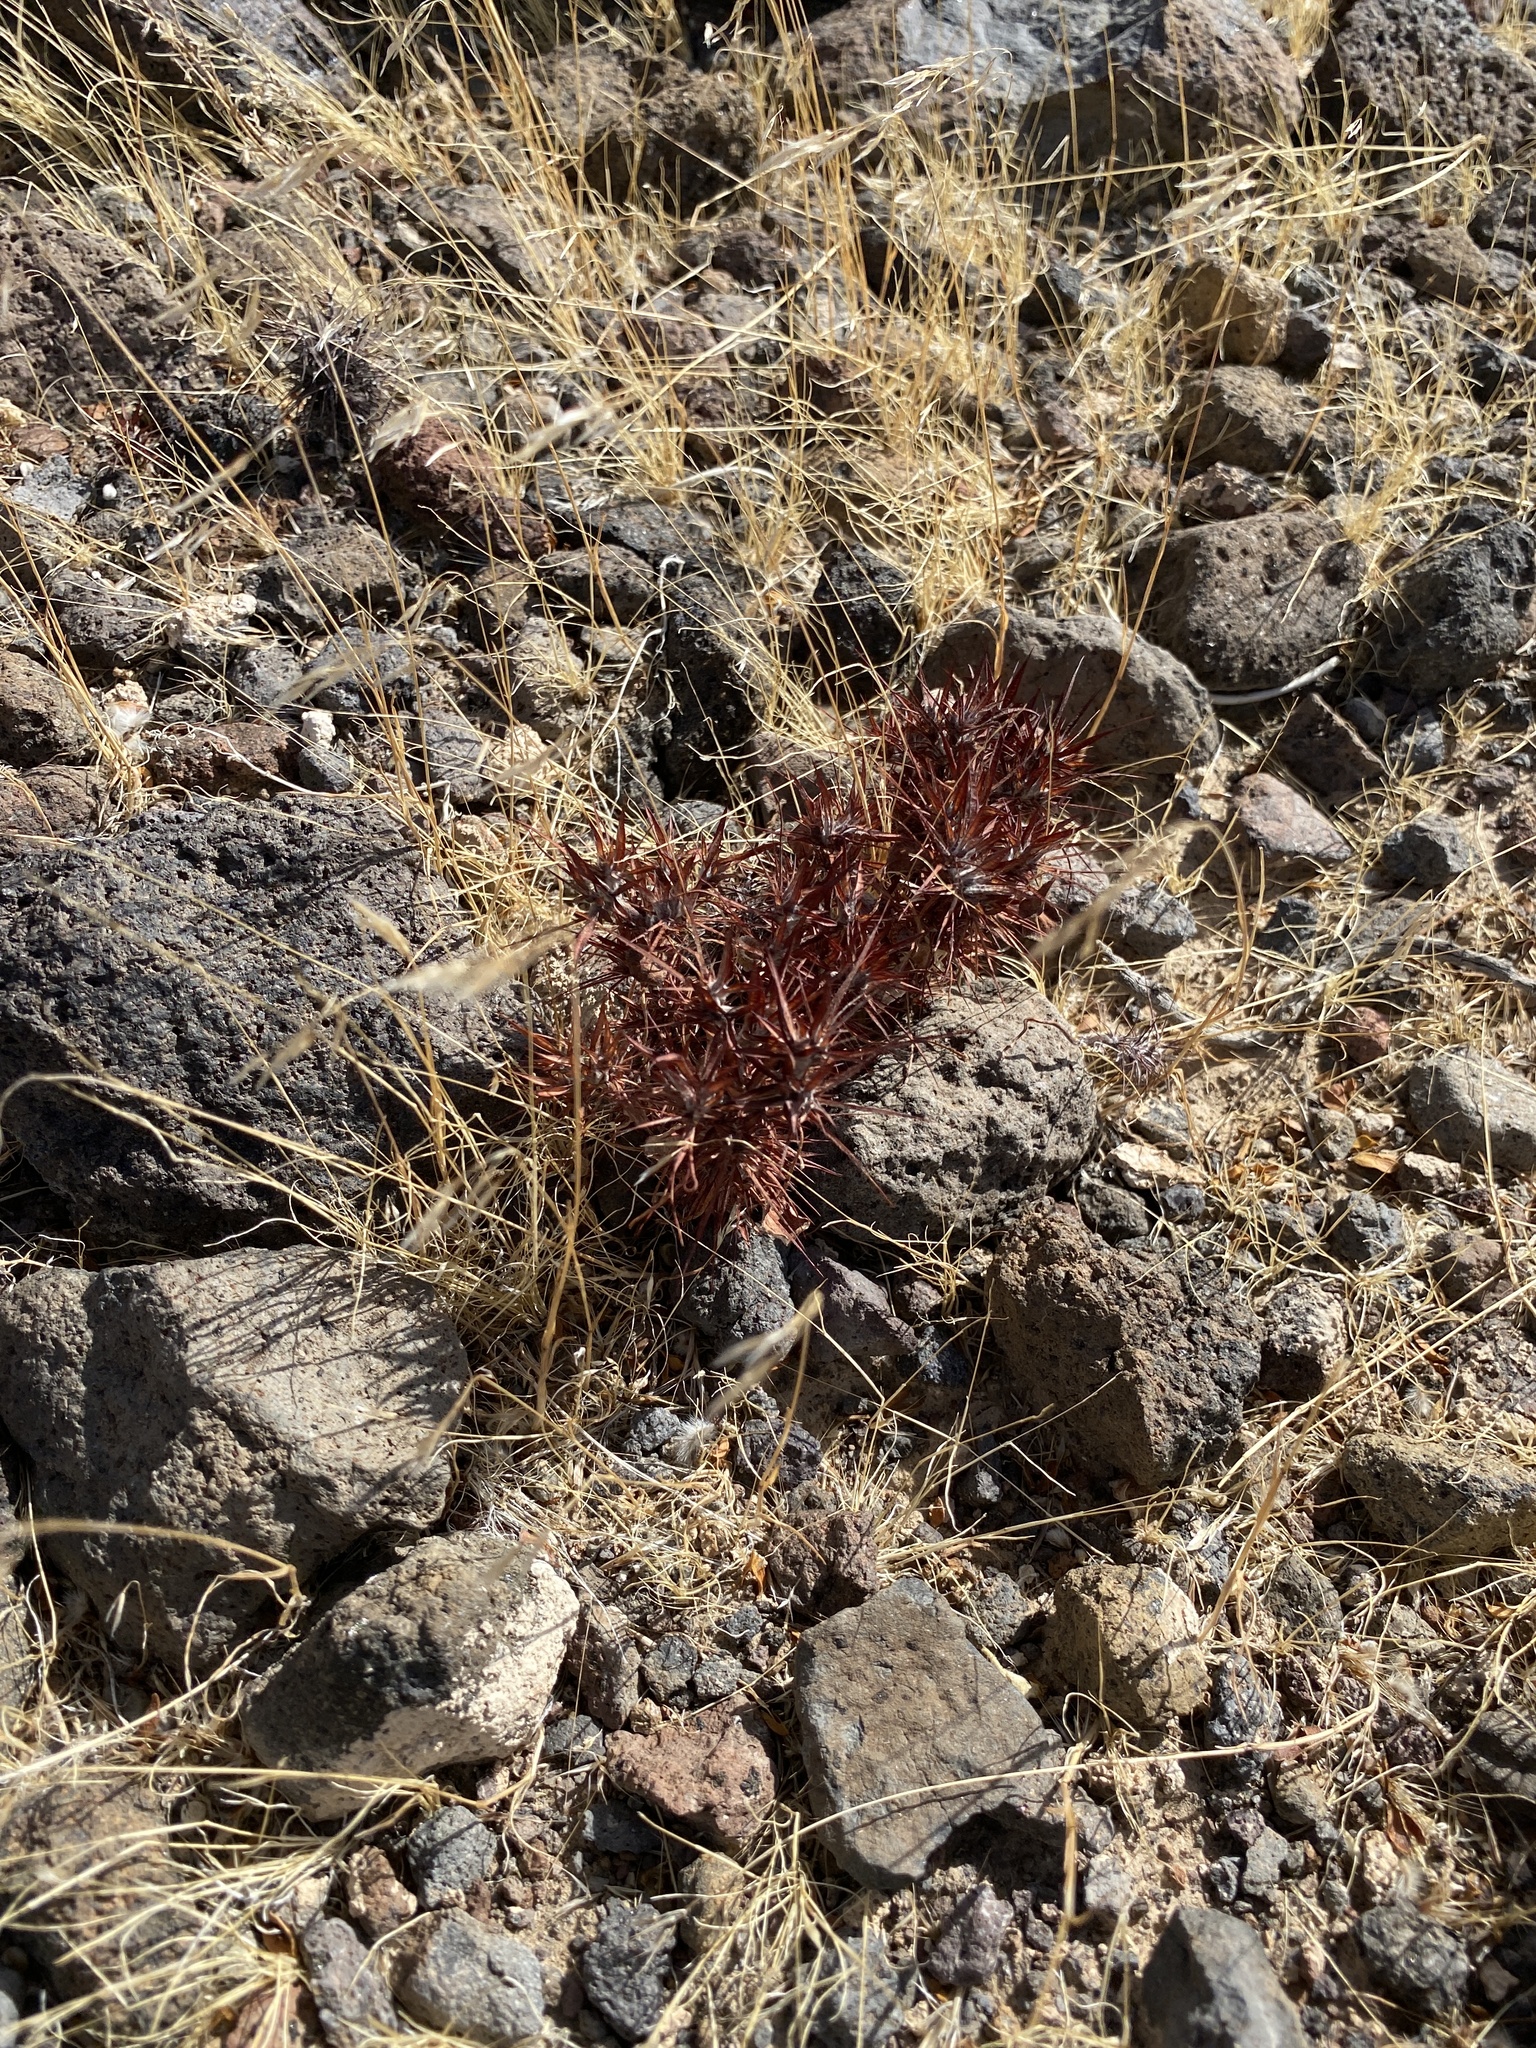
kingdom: Plantae
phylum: Tracheophyta
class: Magnoliopsida
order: Caryophyllales
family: Polygonaceae
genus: Chorizanthe
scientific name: Chorizanthe rigida
